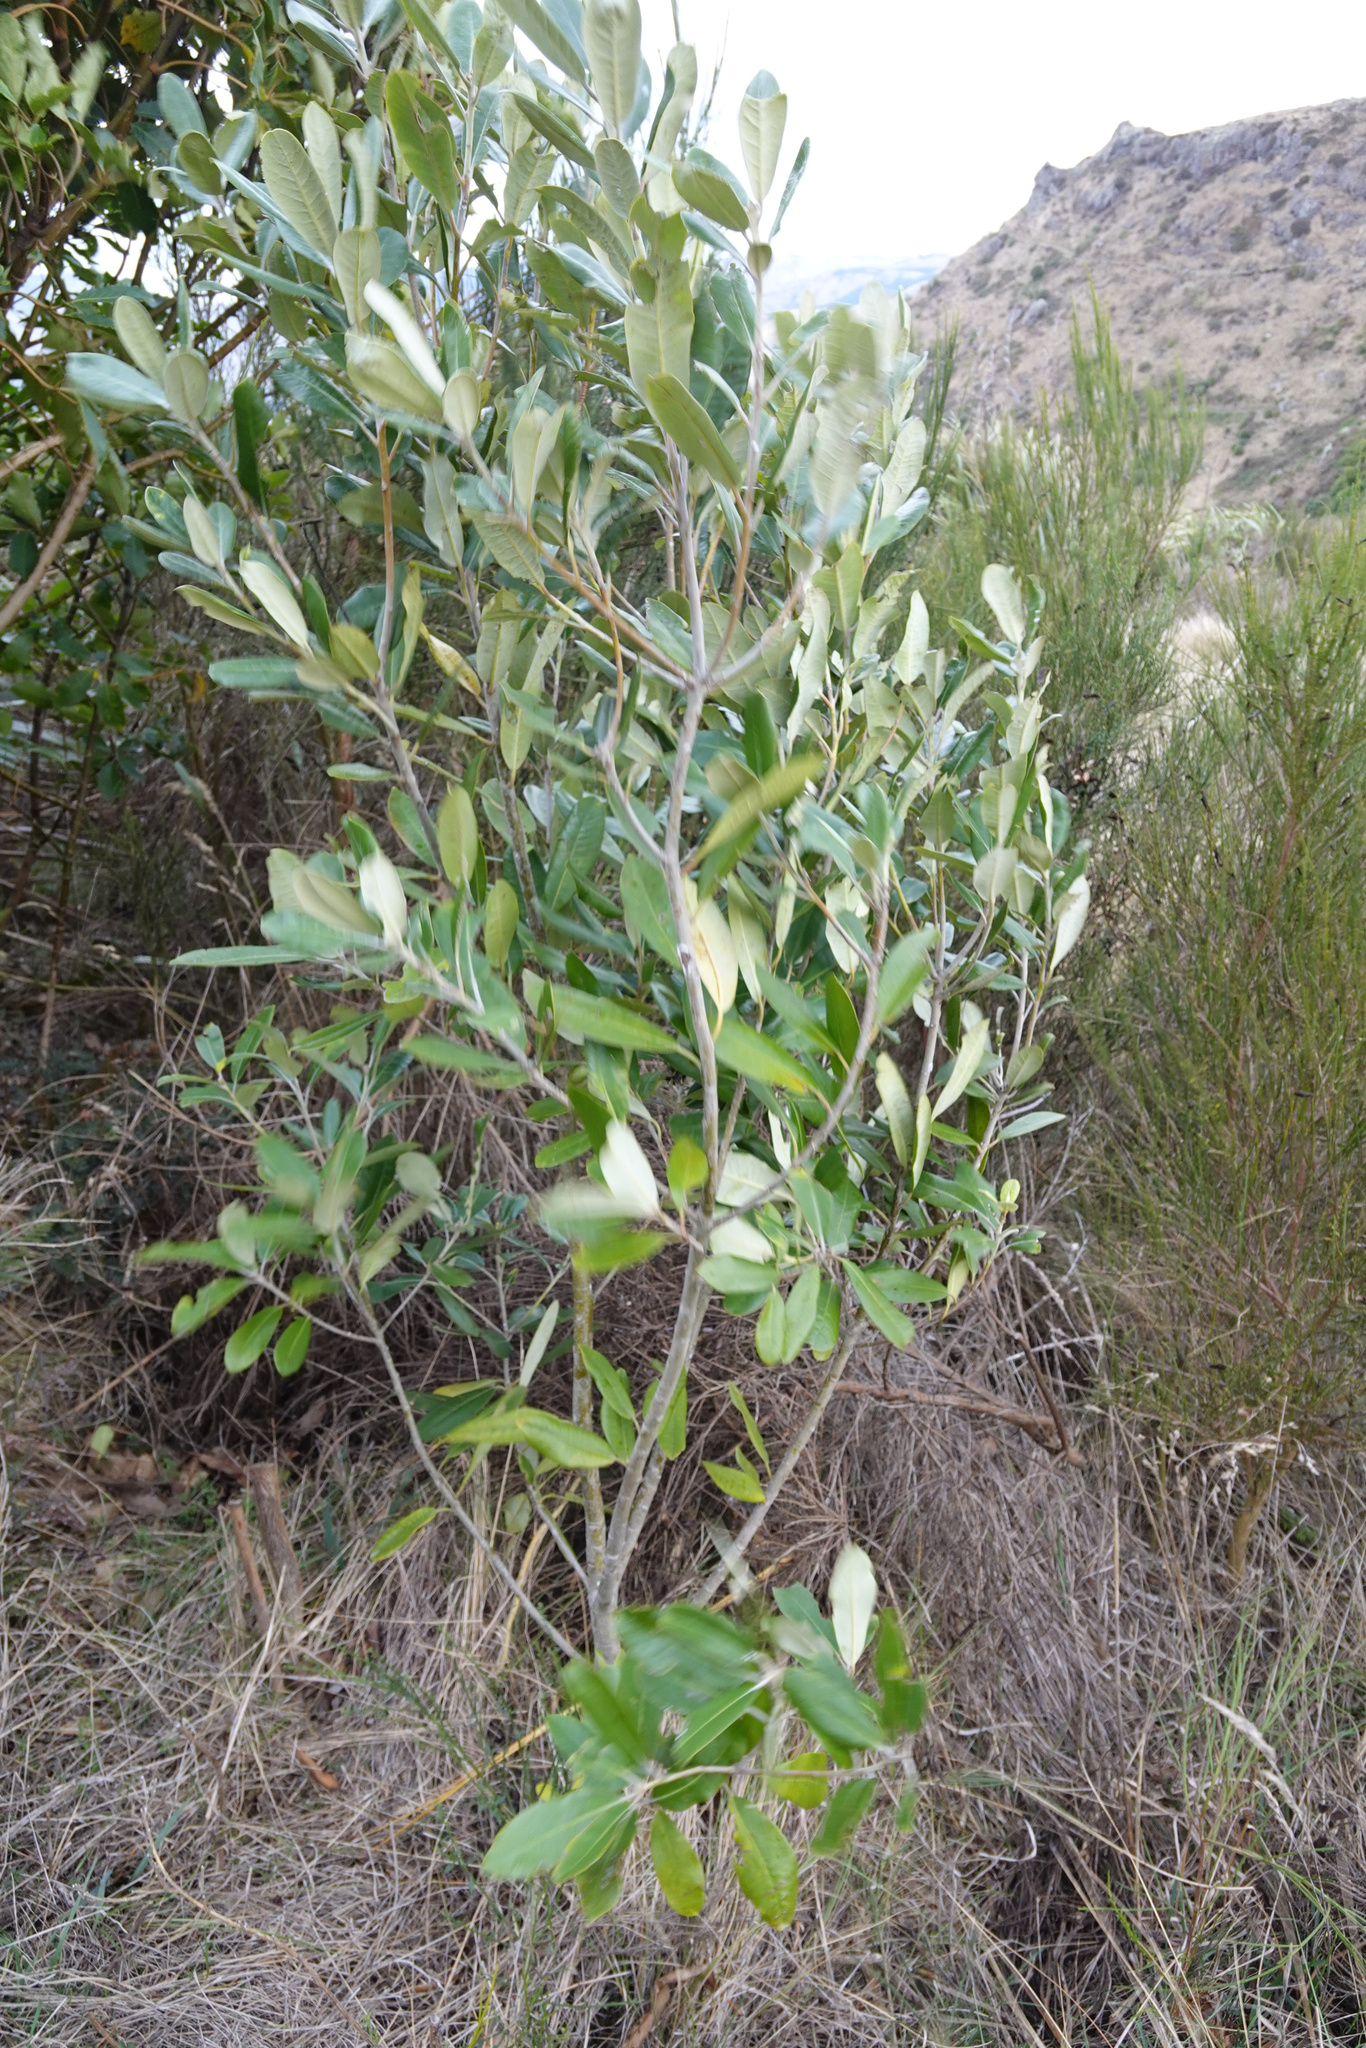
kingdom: Plantae
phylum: Tracheophyta
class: Magnoliopsida
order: Apiales
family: Pittosporaceae
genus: Pittosporum
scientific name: Pittosporum ralphii
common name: Ralph's desertwillow
